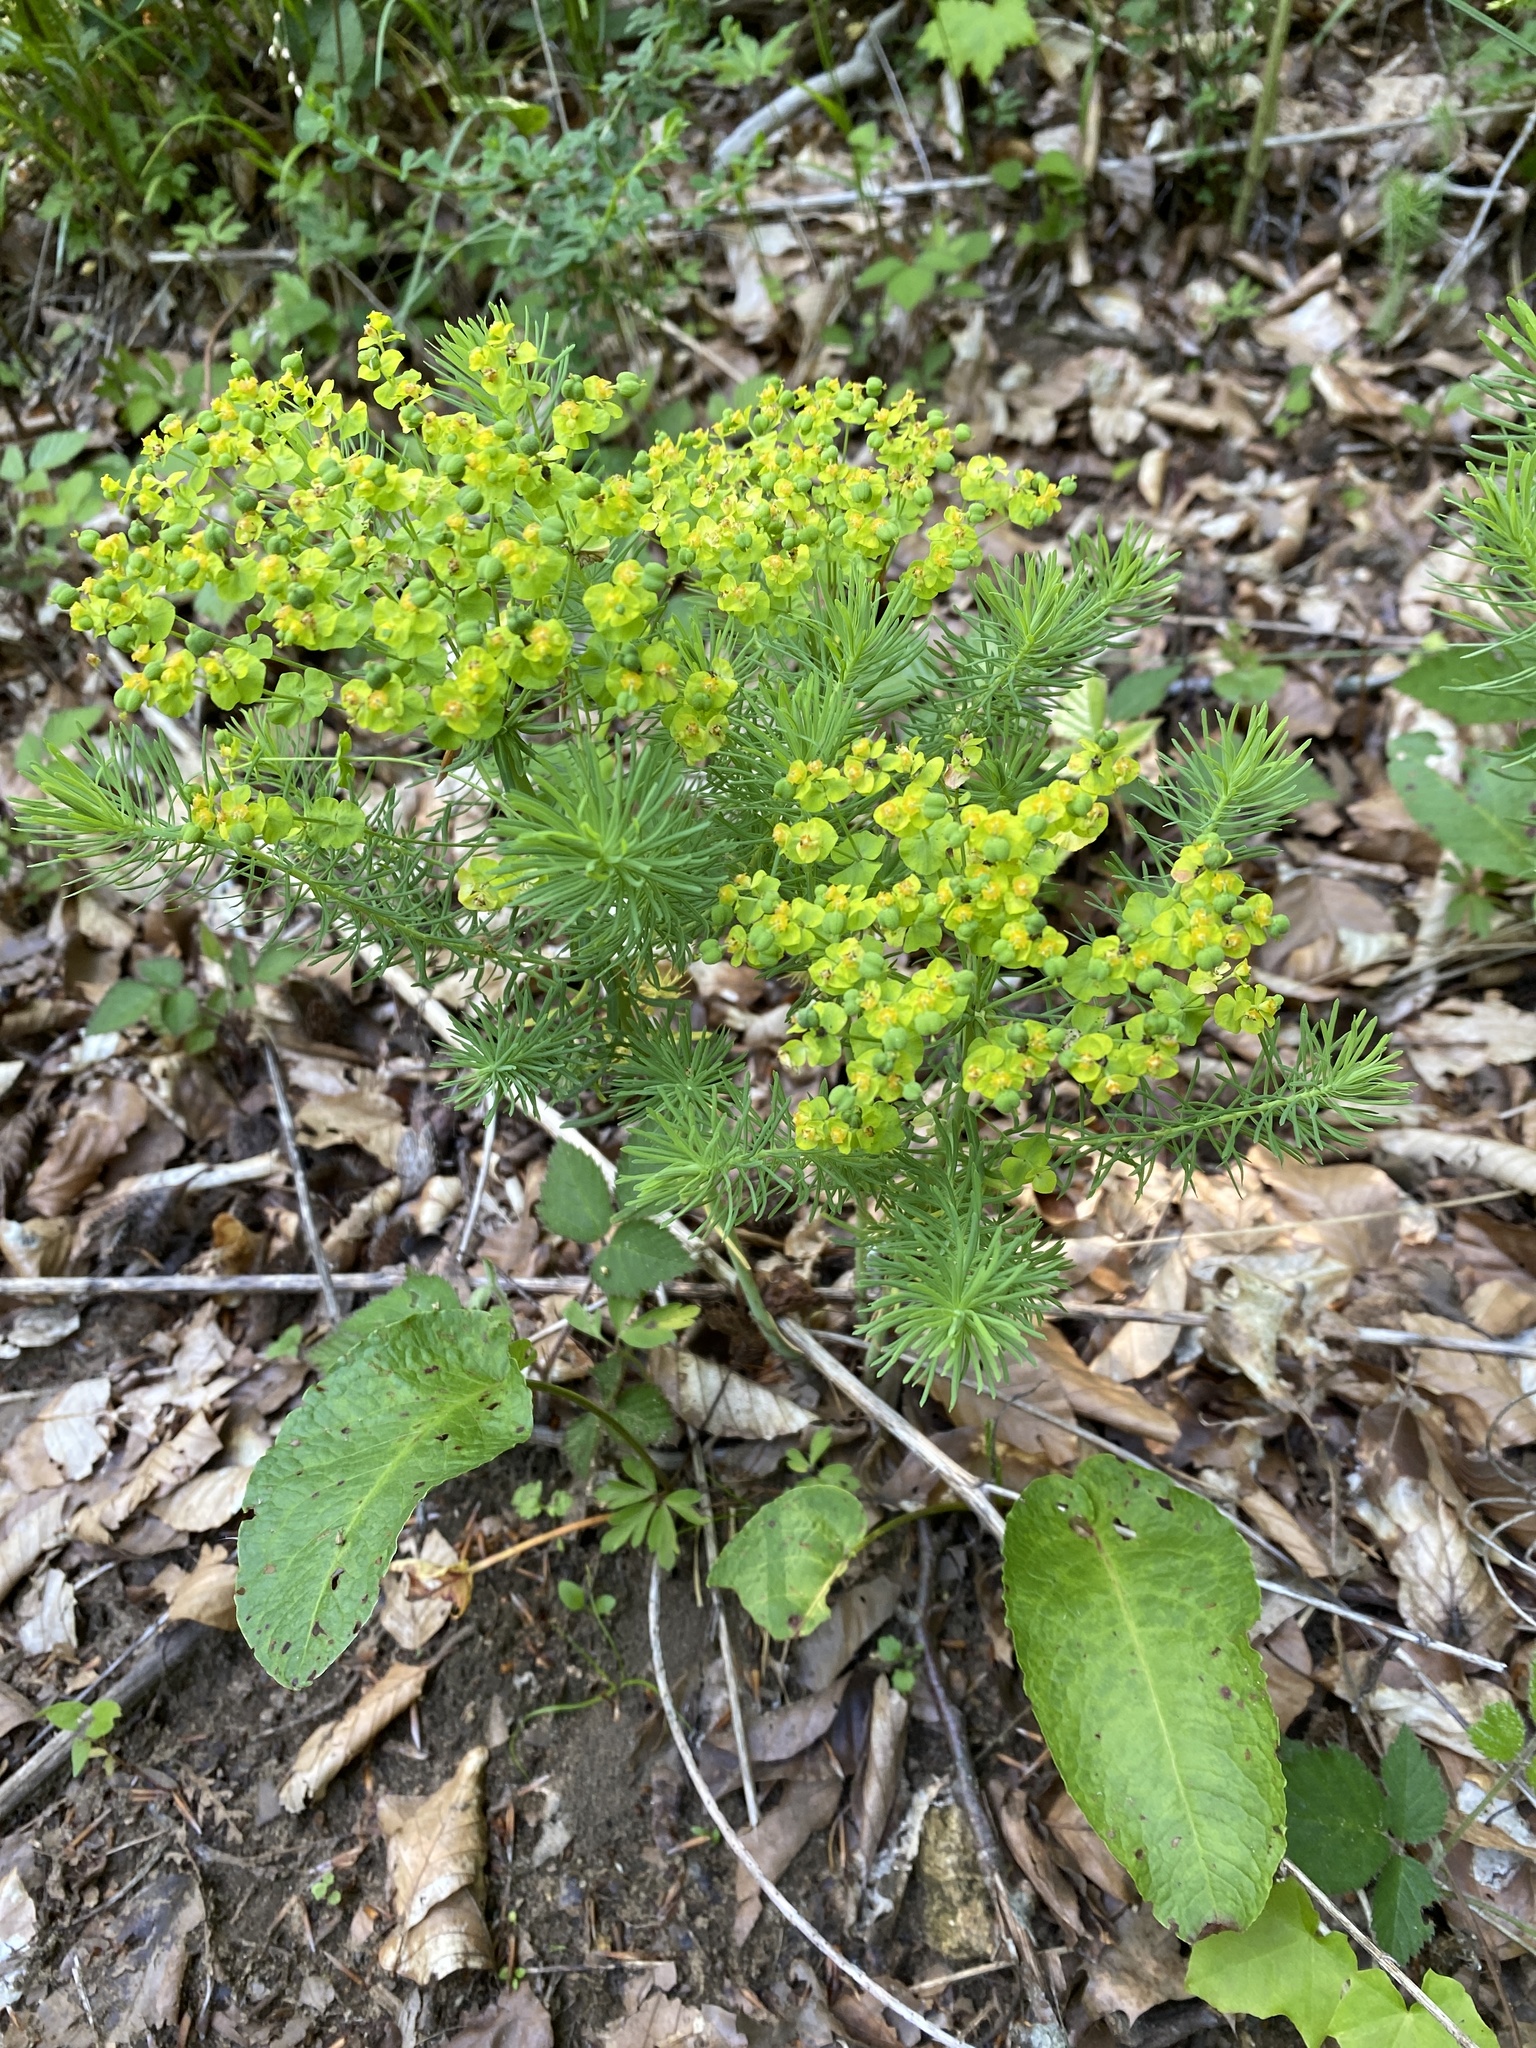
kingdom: Plantae
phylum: Tracheophyta
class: Magnoliopsida
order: Malpighiales
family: Euphorbiaceae
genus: Euphorbia
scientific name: Euphorbia cyparissias
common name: Cypress spurge
